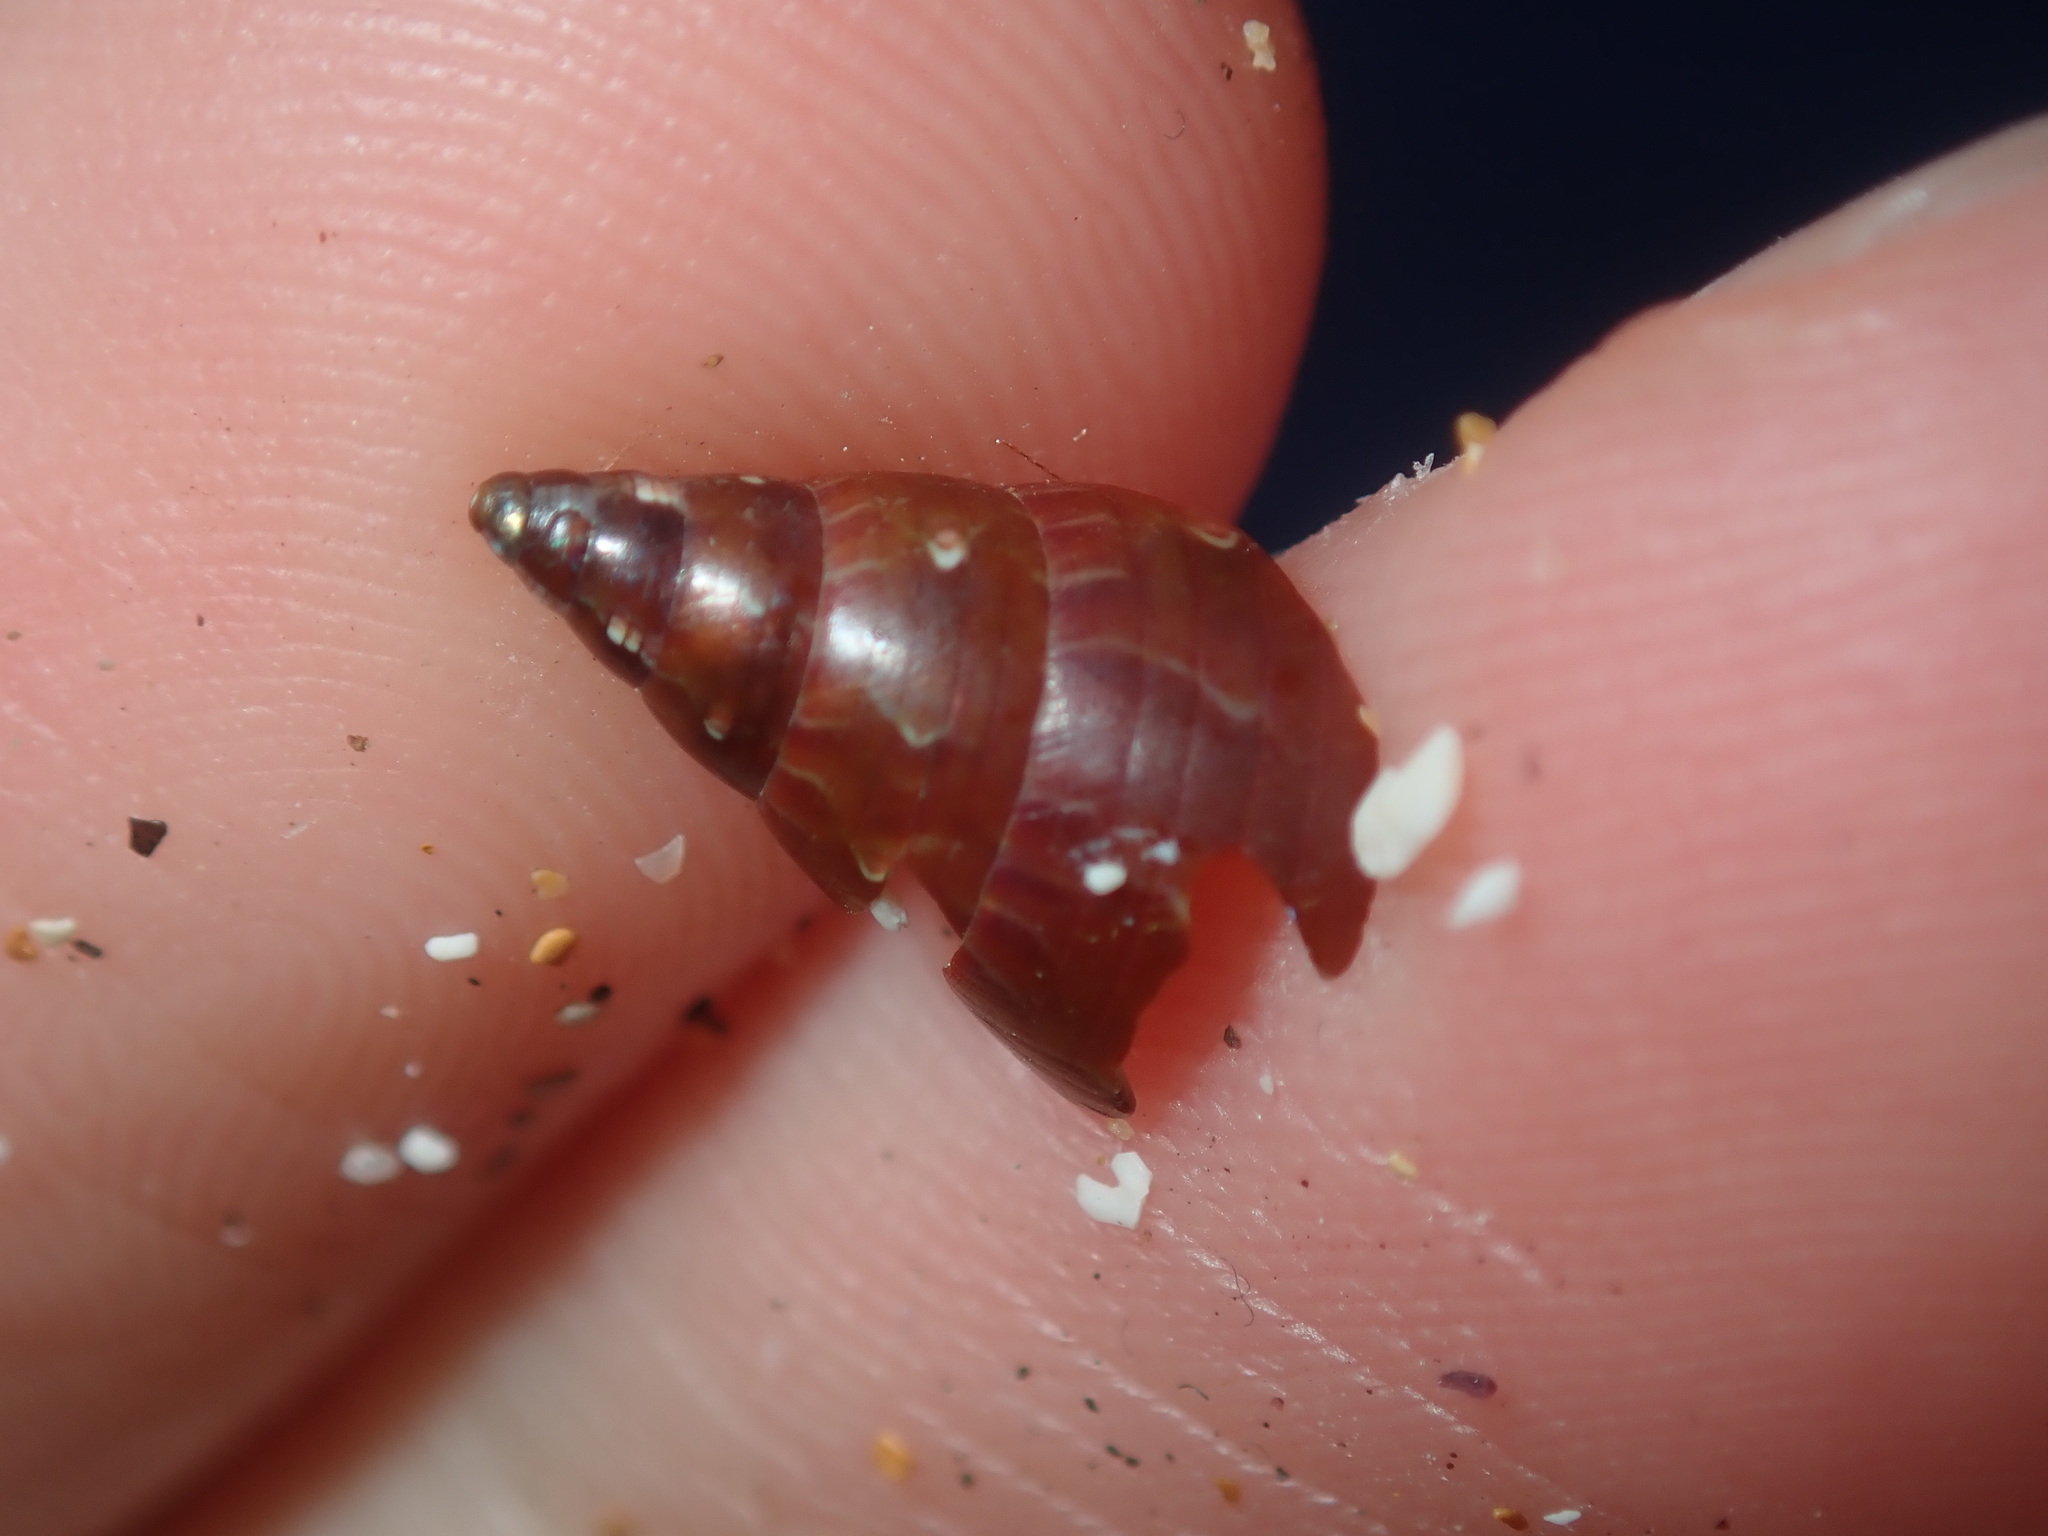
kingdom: Animalia
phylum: Mollusca
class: Gastropoda
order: Trochida
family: Trochidae
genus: Phasianotrochus
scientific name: Phasianotrochus eximius
